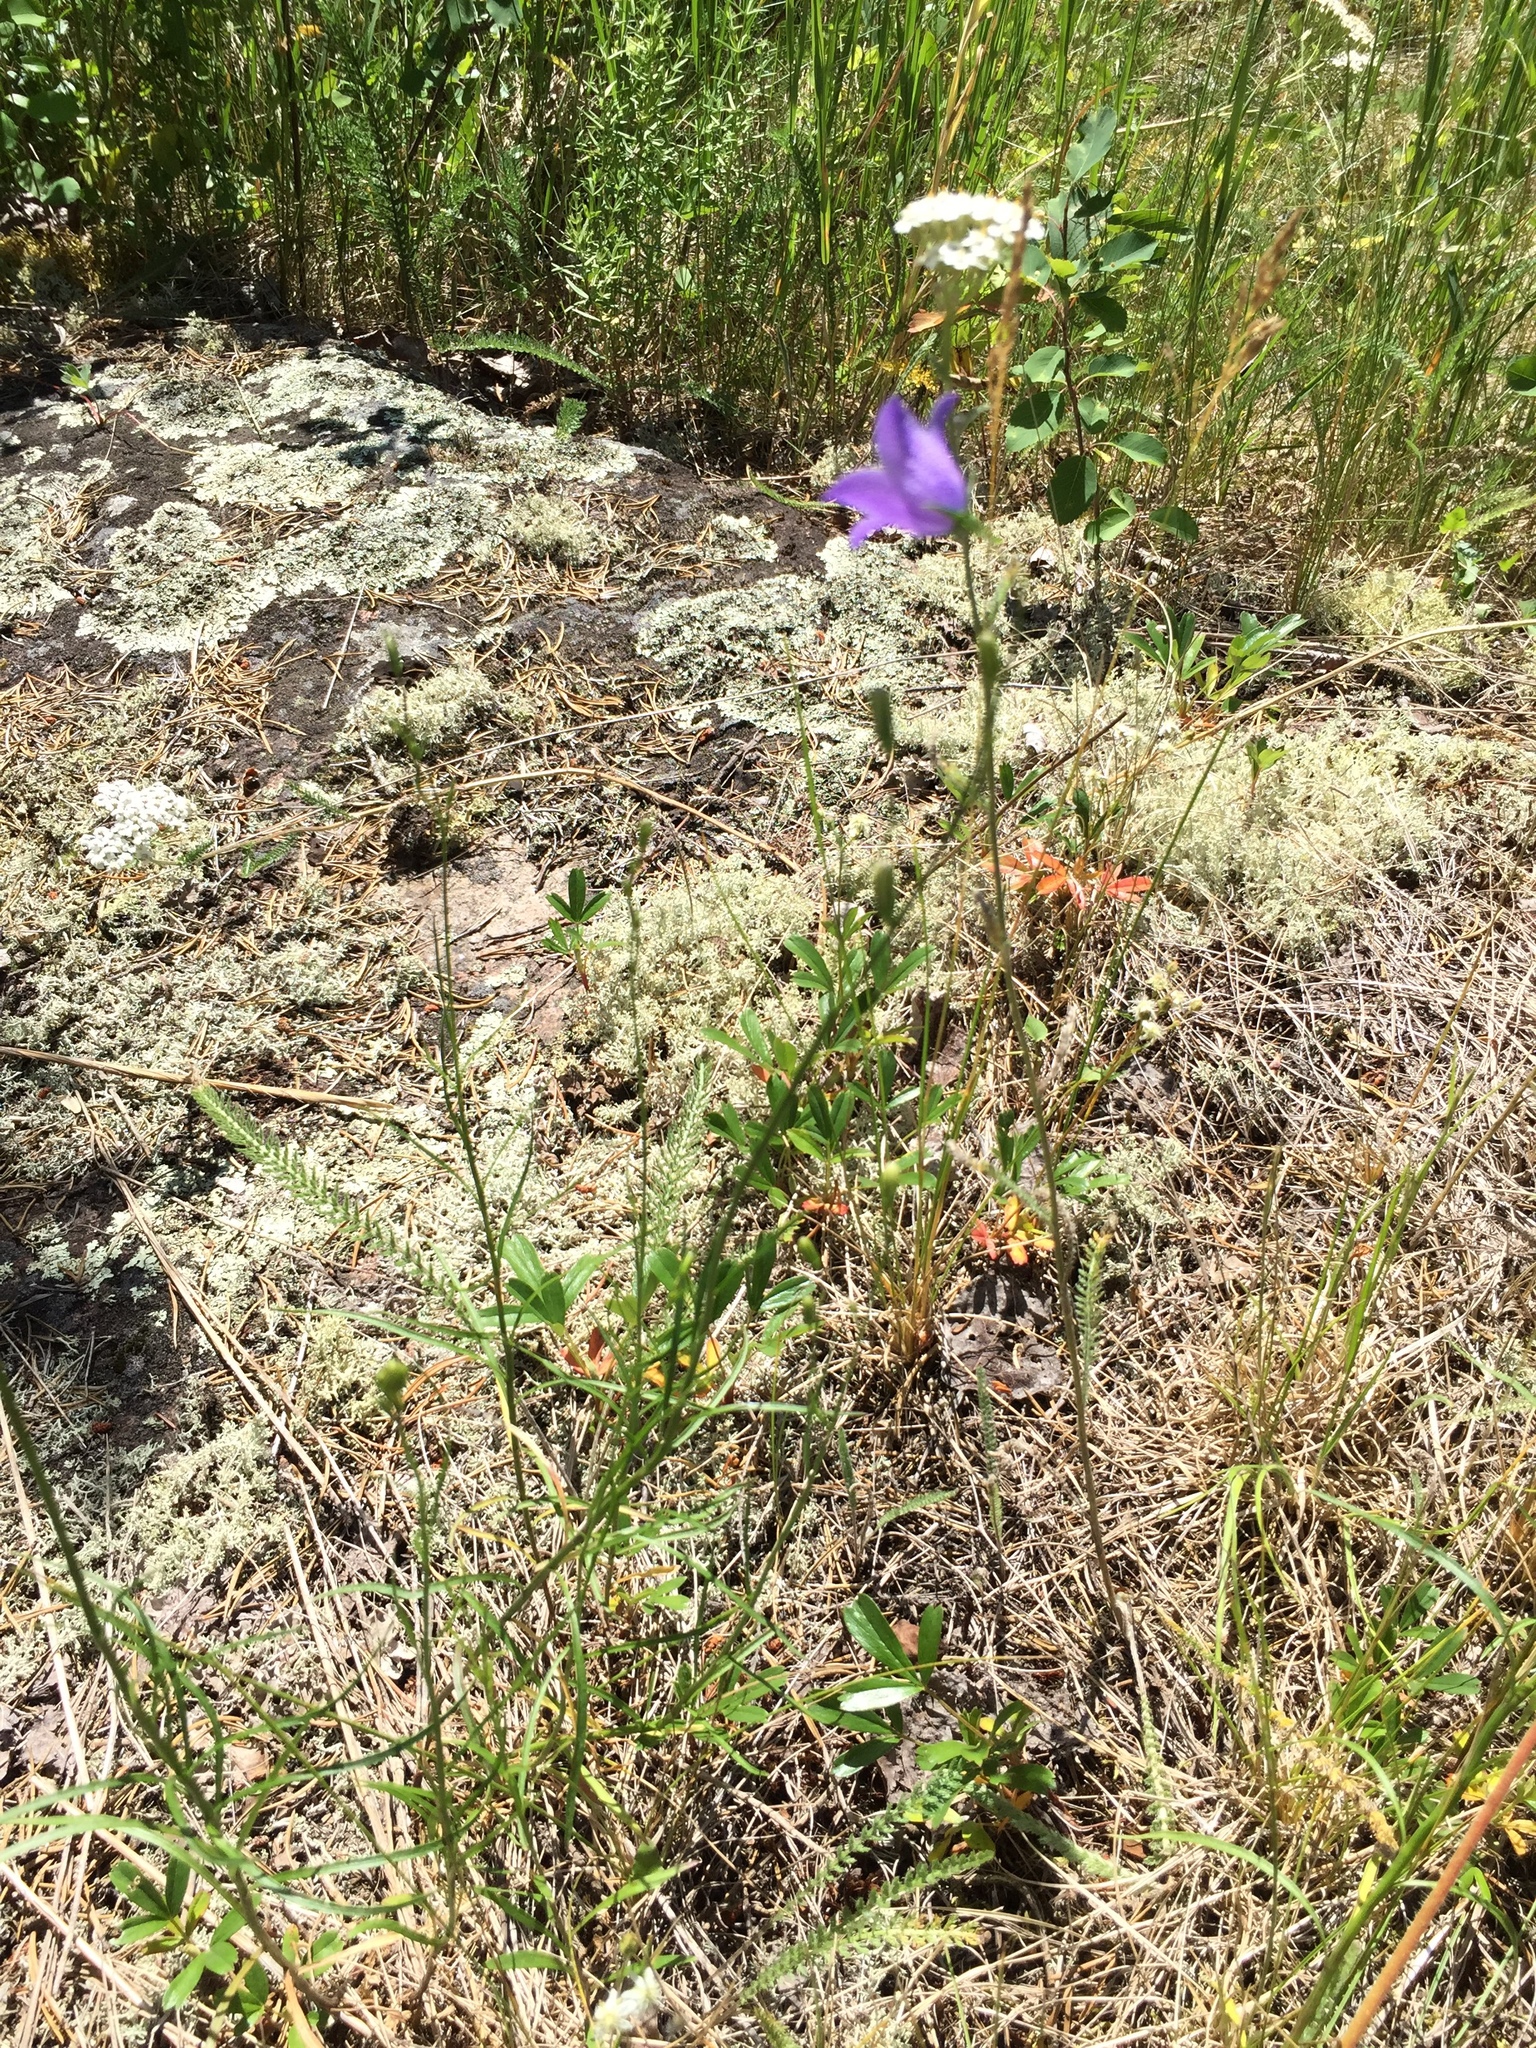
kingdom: Plantae
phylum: Tracheophyta
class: Magnoliopsida
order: Asterales
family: Campanulaceae
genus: Campanula
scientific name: Campanula petiolata
